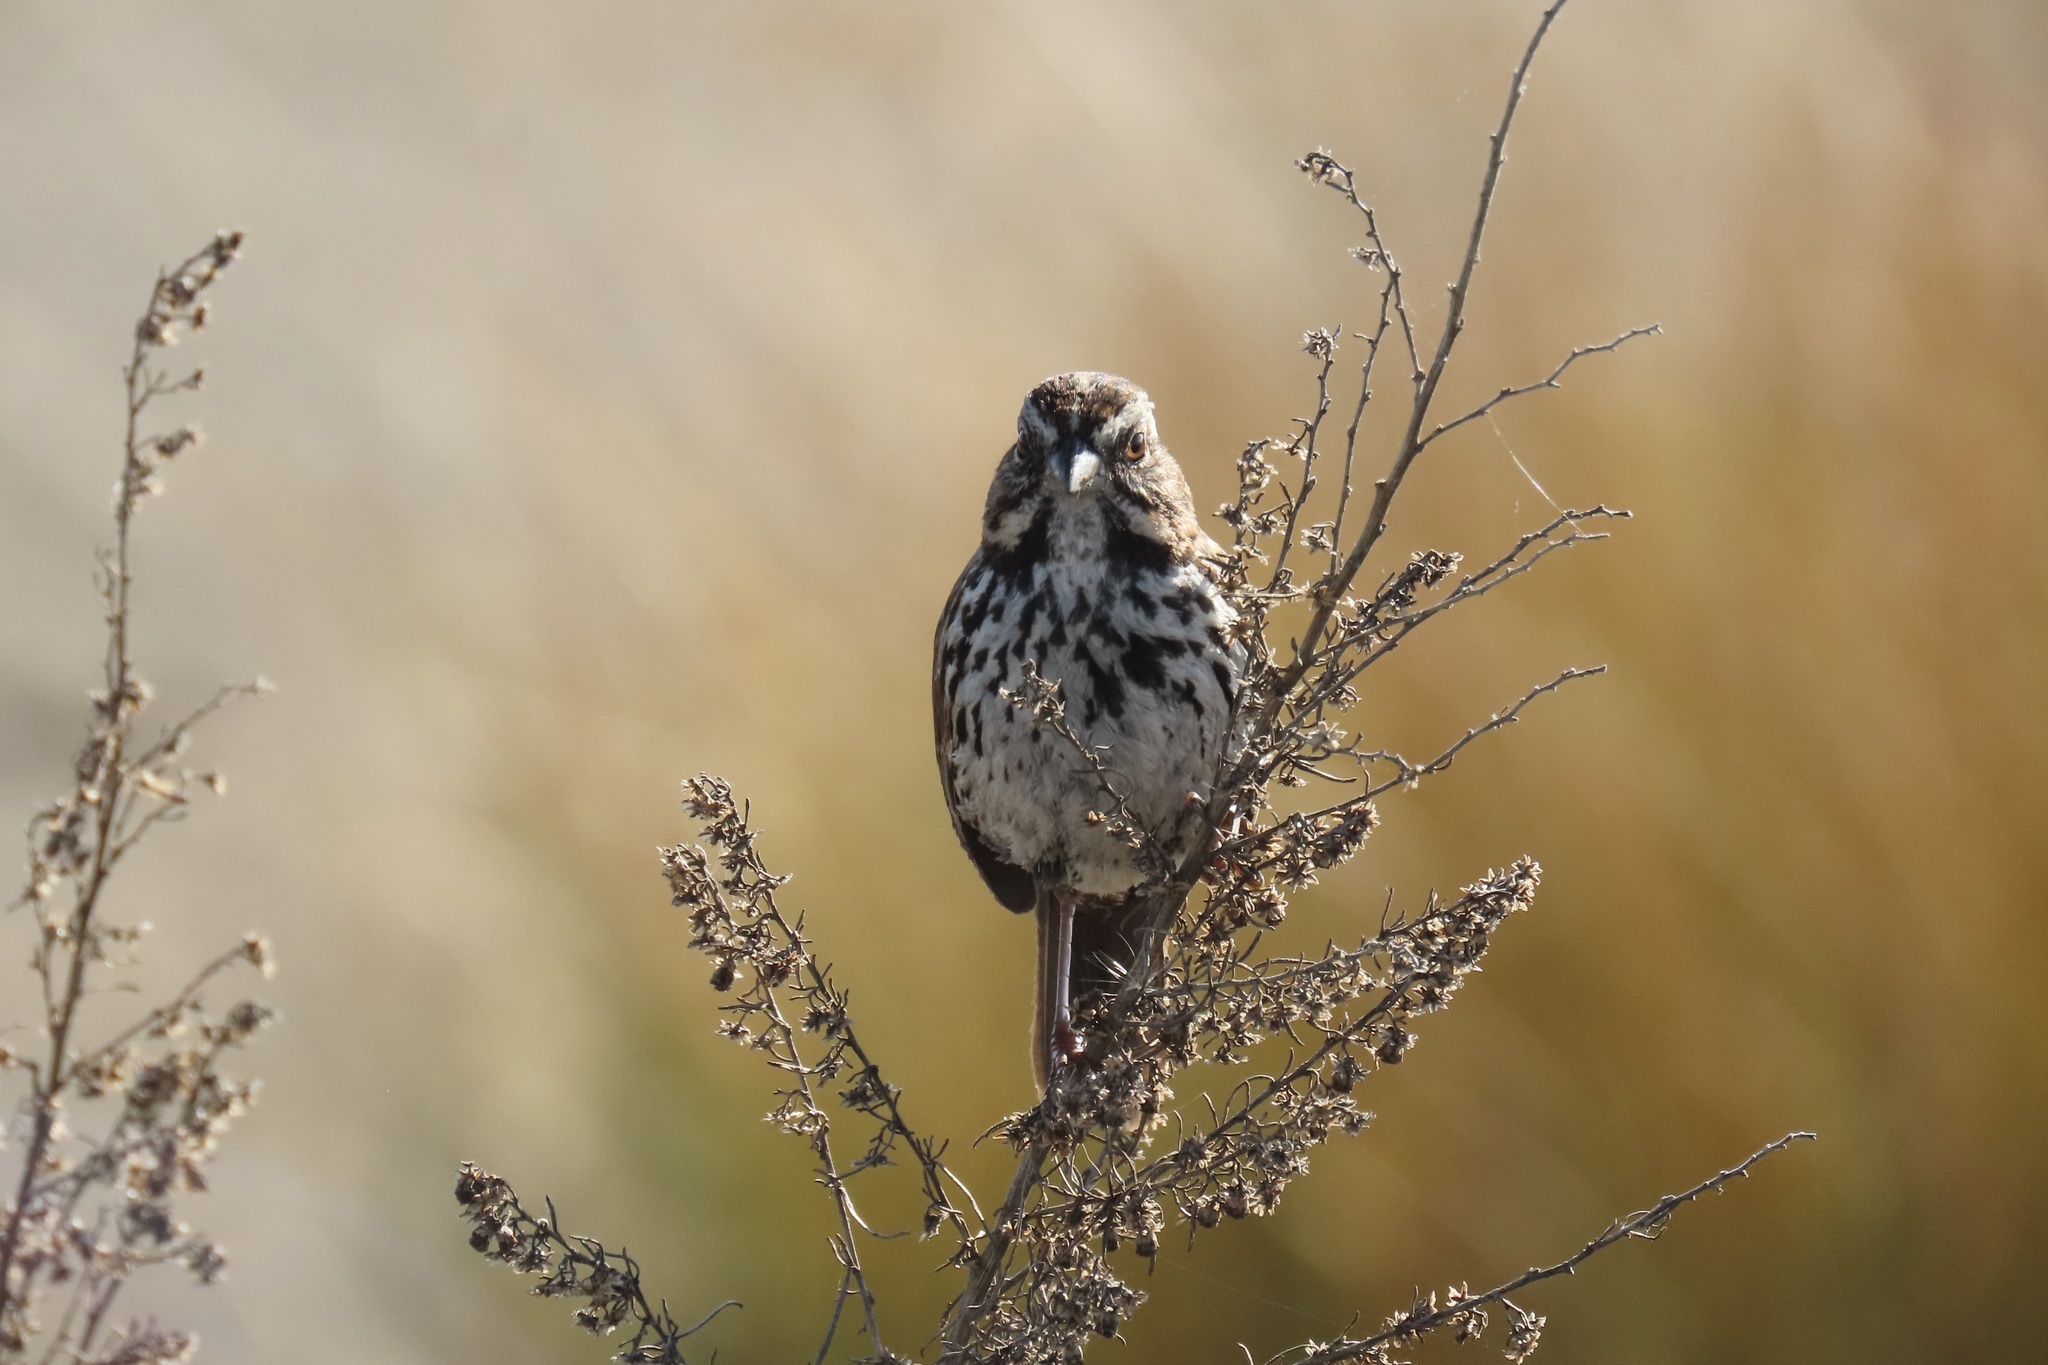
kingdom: Animalia
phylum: Chordata
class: Aves
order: Passeriformes
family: Passerellidae
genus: Melospiza
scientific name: Melospiza melodia
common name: Song sparrow
